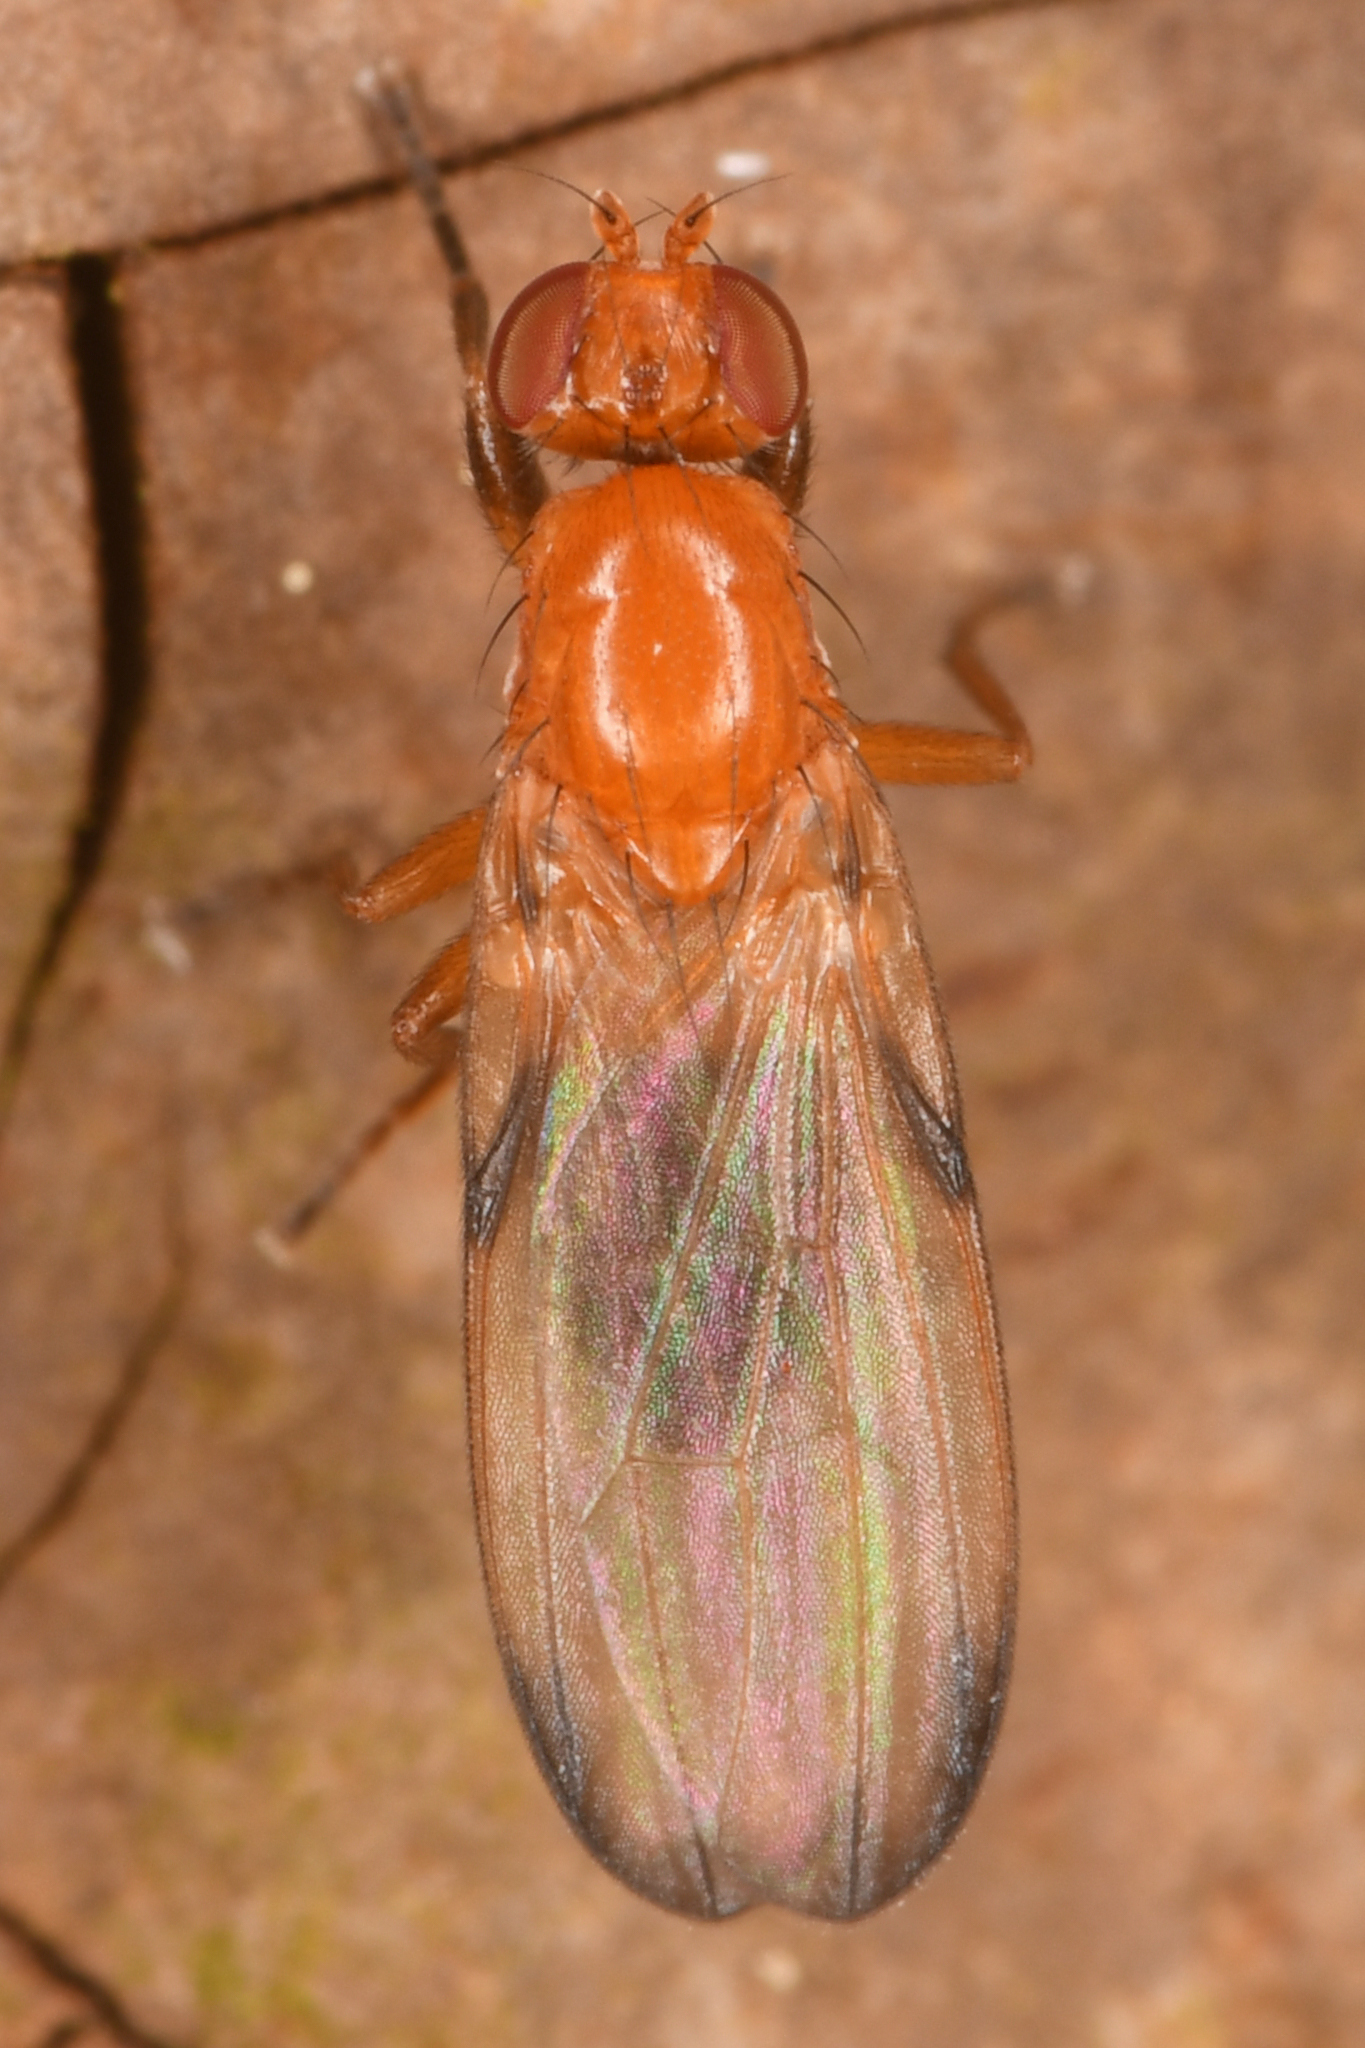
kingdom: Animalia
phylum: Arthropoda
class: Insecta
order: Diptera
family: Piophilidae
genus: Mycetaulus
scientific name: Mycetaulus polypori
